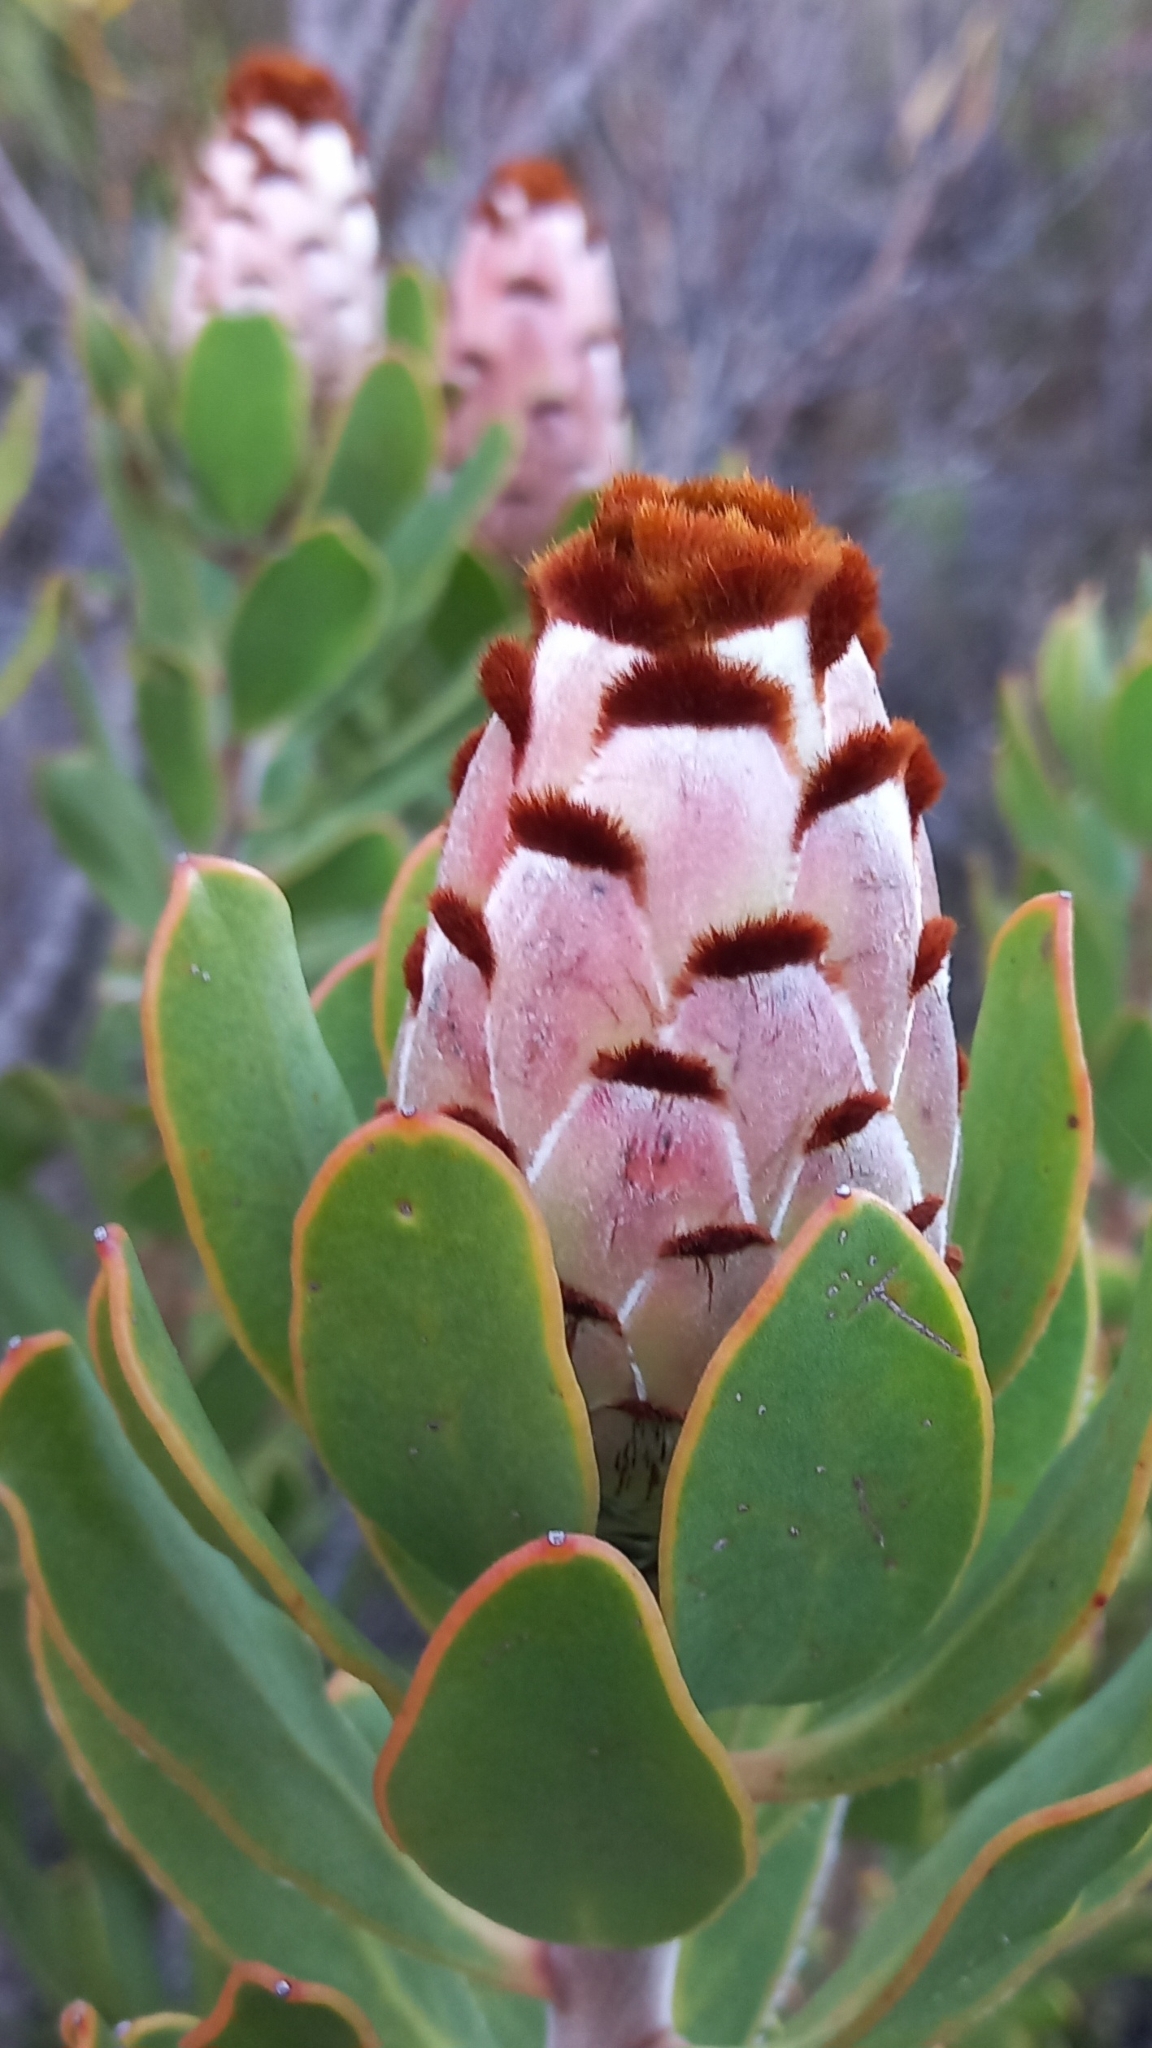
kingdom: Plantae
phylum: Tracheophyta
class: Magnoliopsida
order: Proteales
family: Proteaceae
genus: Protea
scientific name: Protea speciosa
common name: Brown-beard sugarbush
